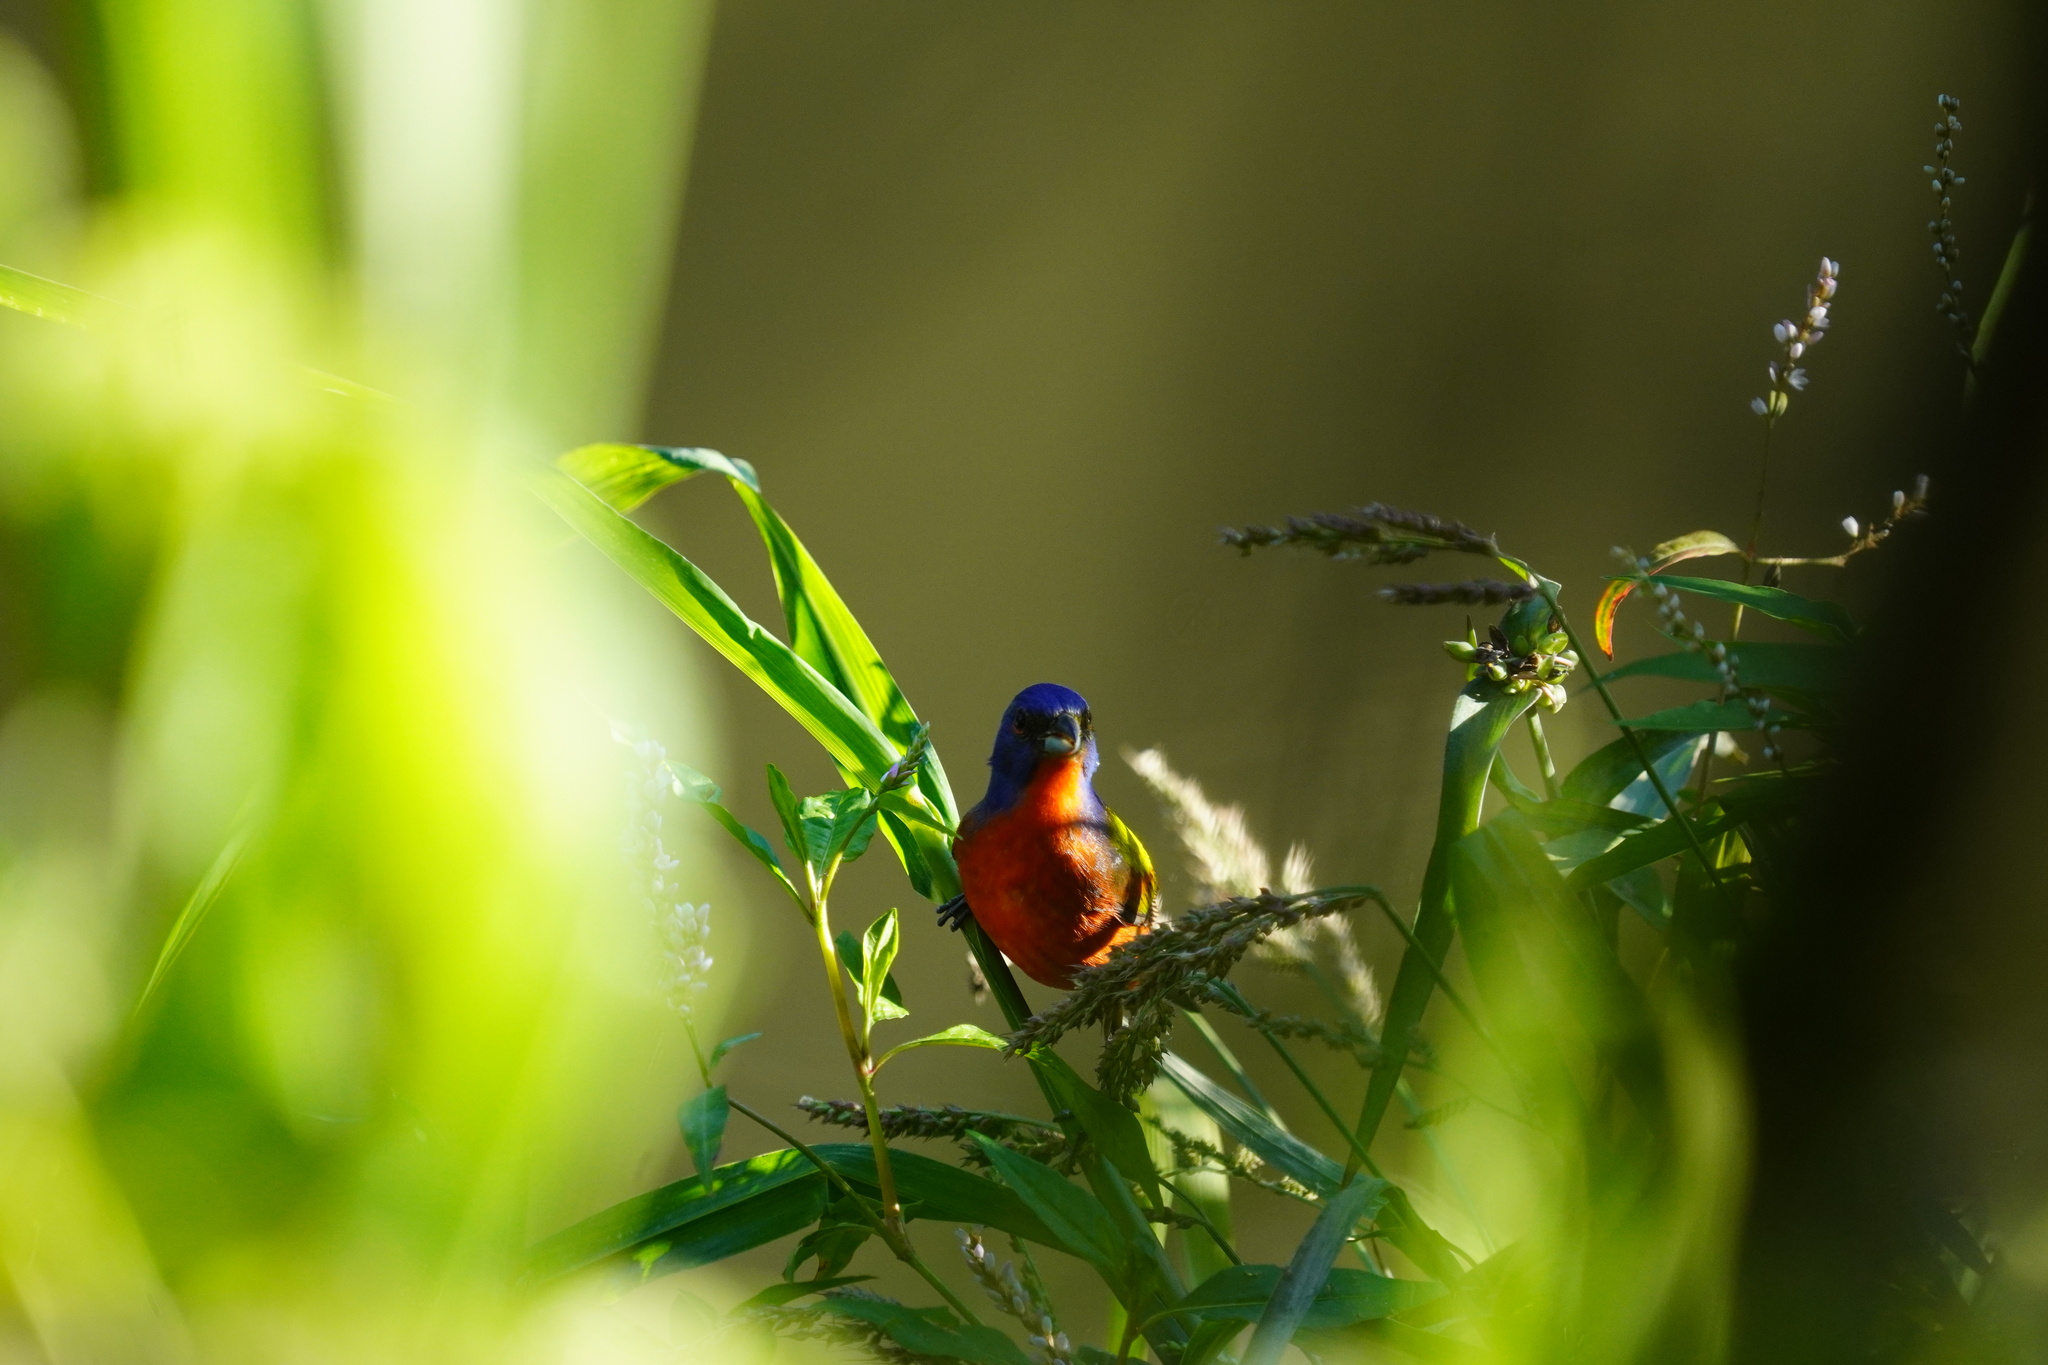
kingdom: Animalia
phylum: Chordata
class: Aves
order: Passeriformes
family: Cardinalidae
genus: Passerina
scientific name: Passerina ciris
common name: Painted bunting
